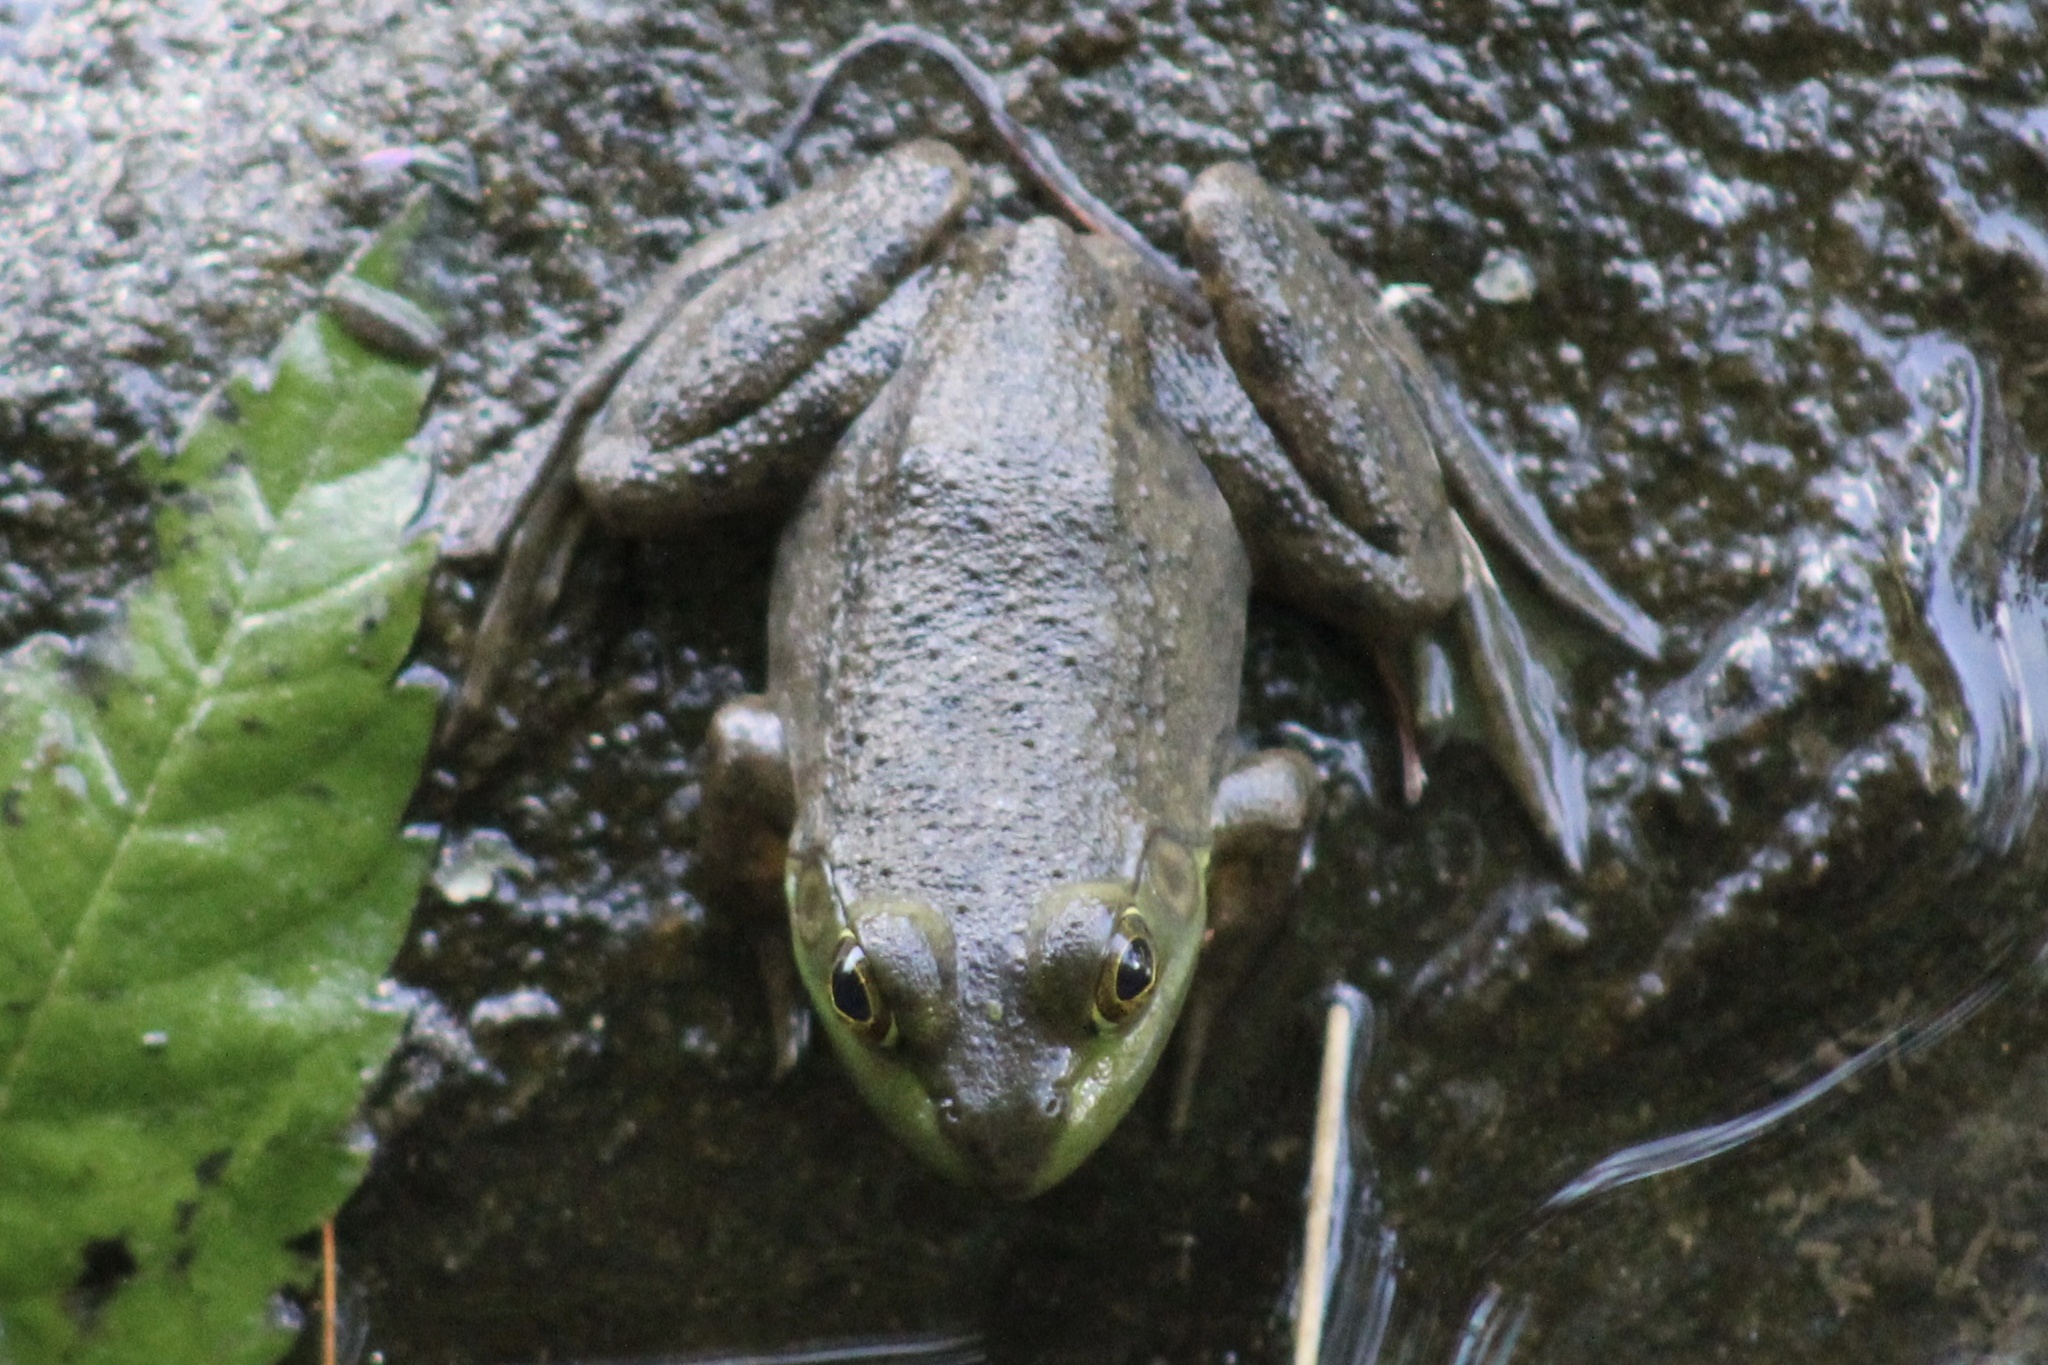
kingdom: Animalia
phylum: Chordata
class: Amphibia
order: Anura
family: Ranidae
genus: Lithobates
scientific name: Lithobates catesbeianus
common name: American bullfrog
